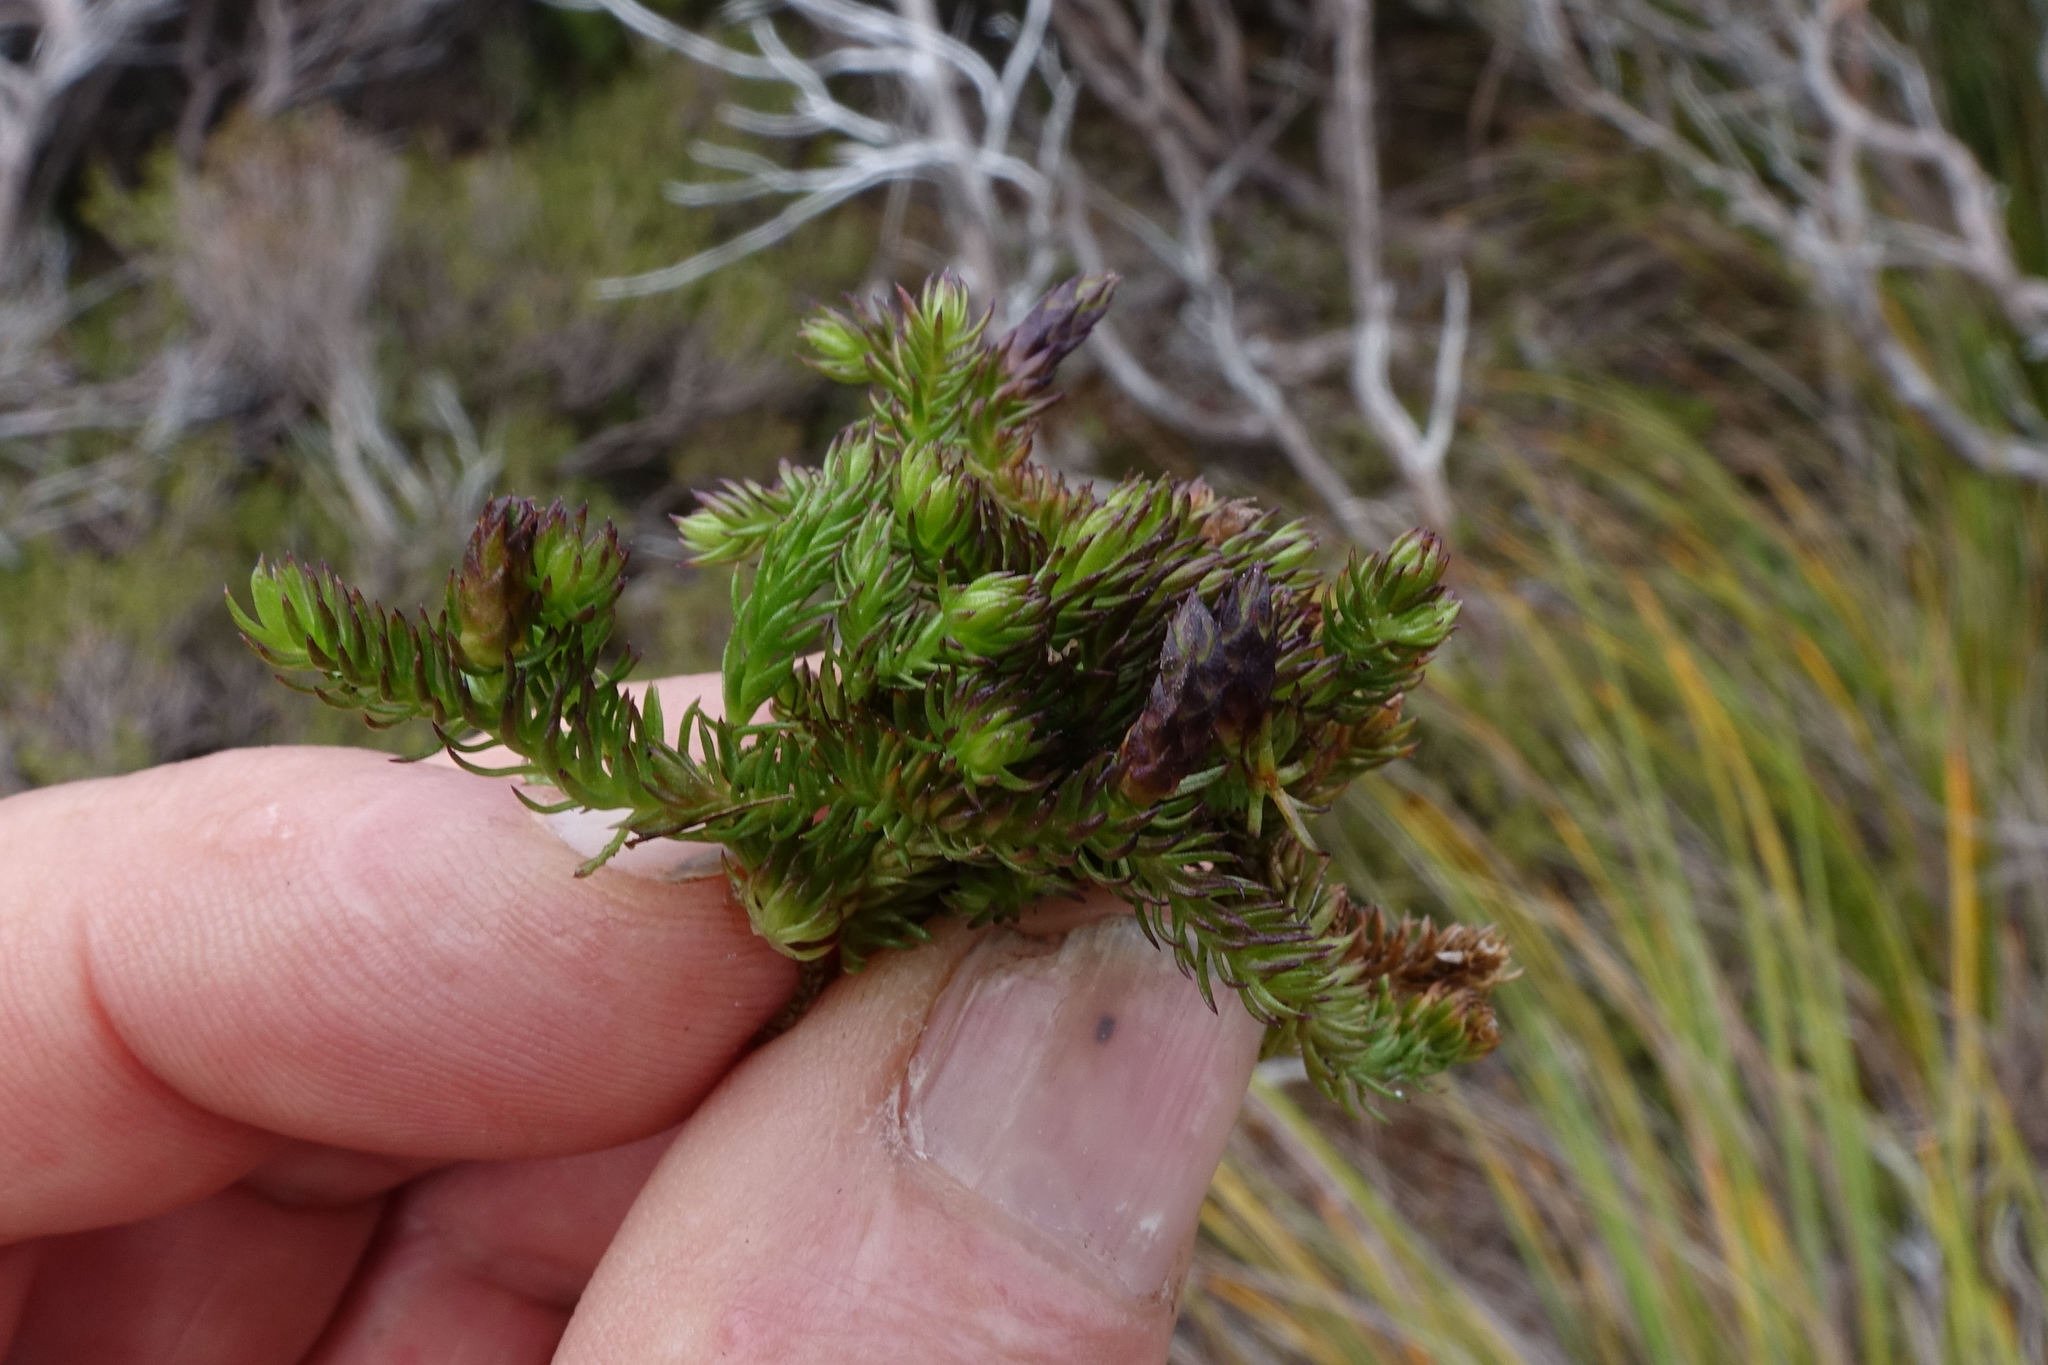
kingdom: Plantae
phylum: Tracheophyta
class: Lycopodiopsida
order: Lycopodiales
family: Lycopodiaceae
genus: Lateristachys
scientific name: Lateristachys diffusa
